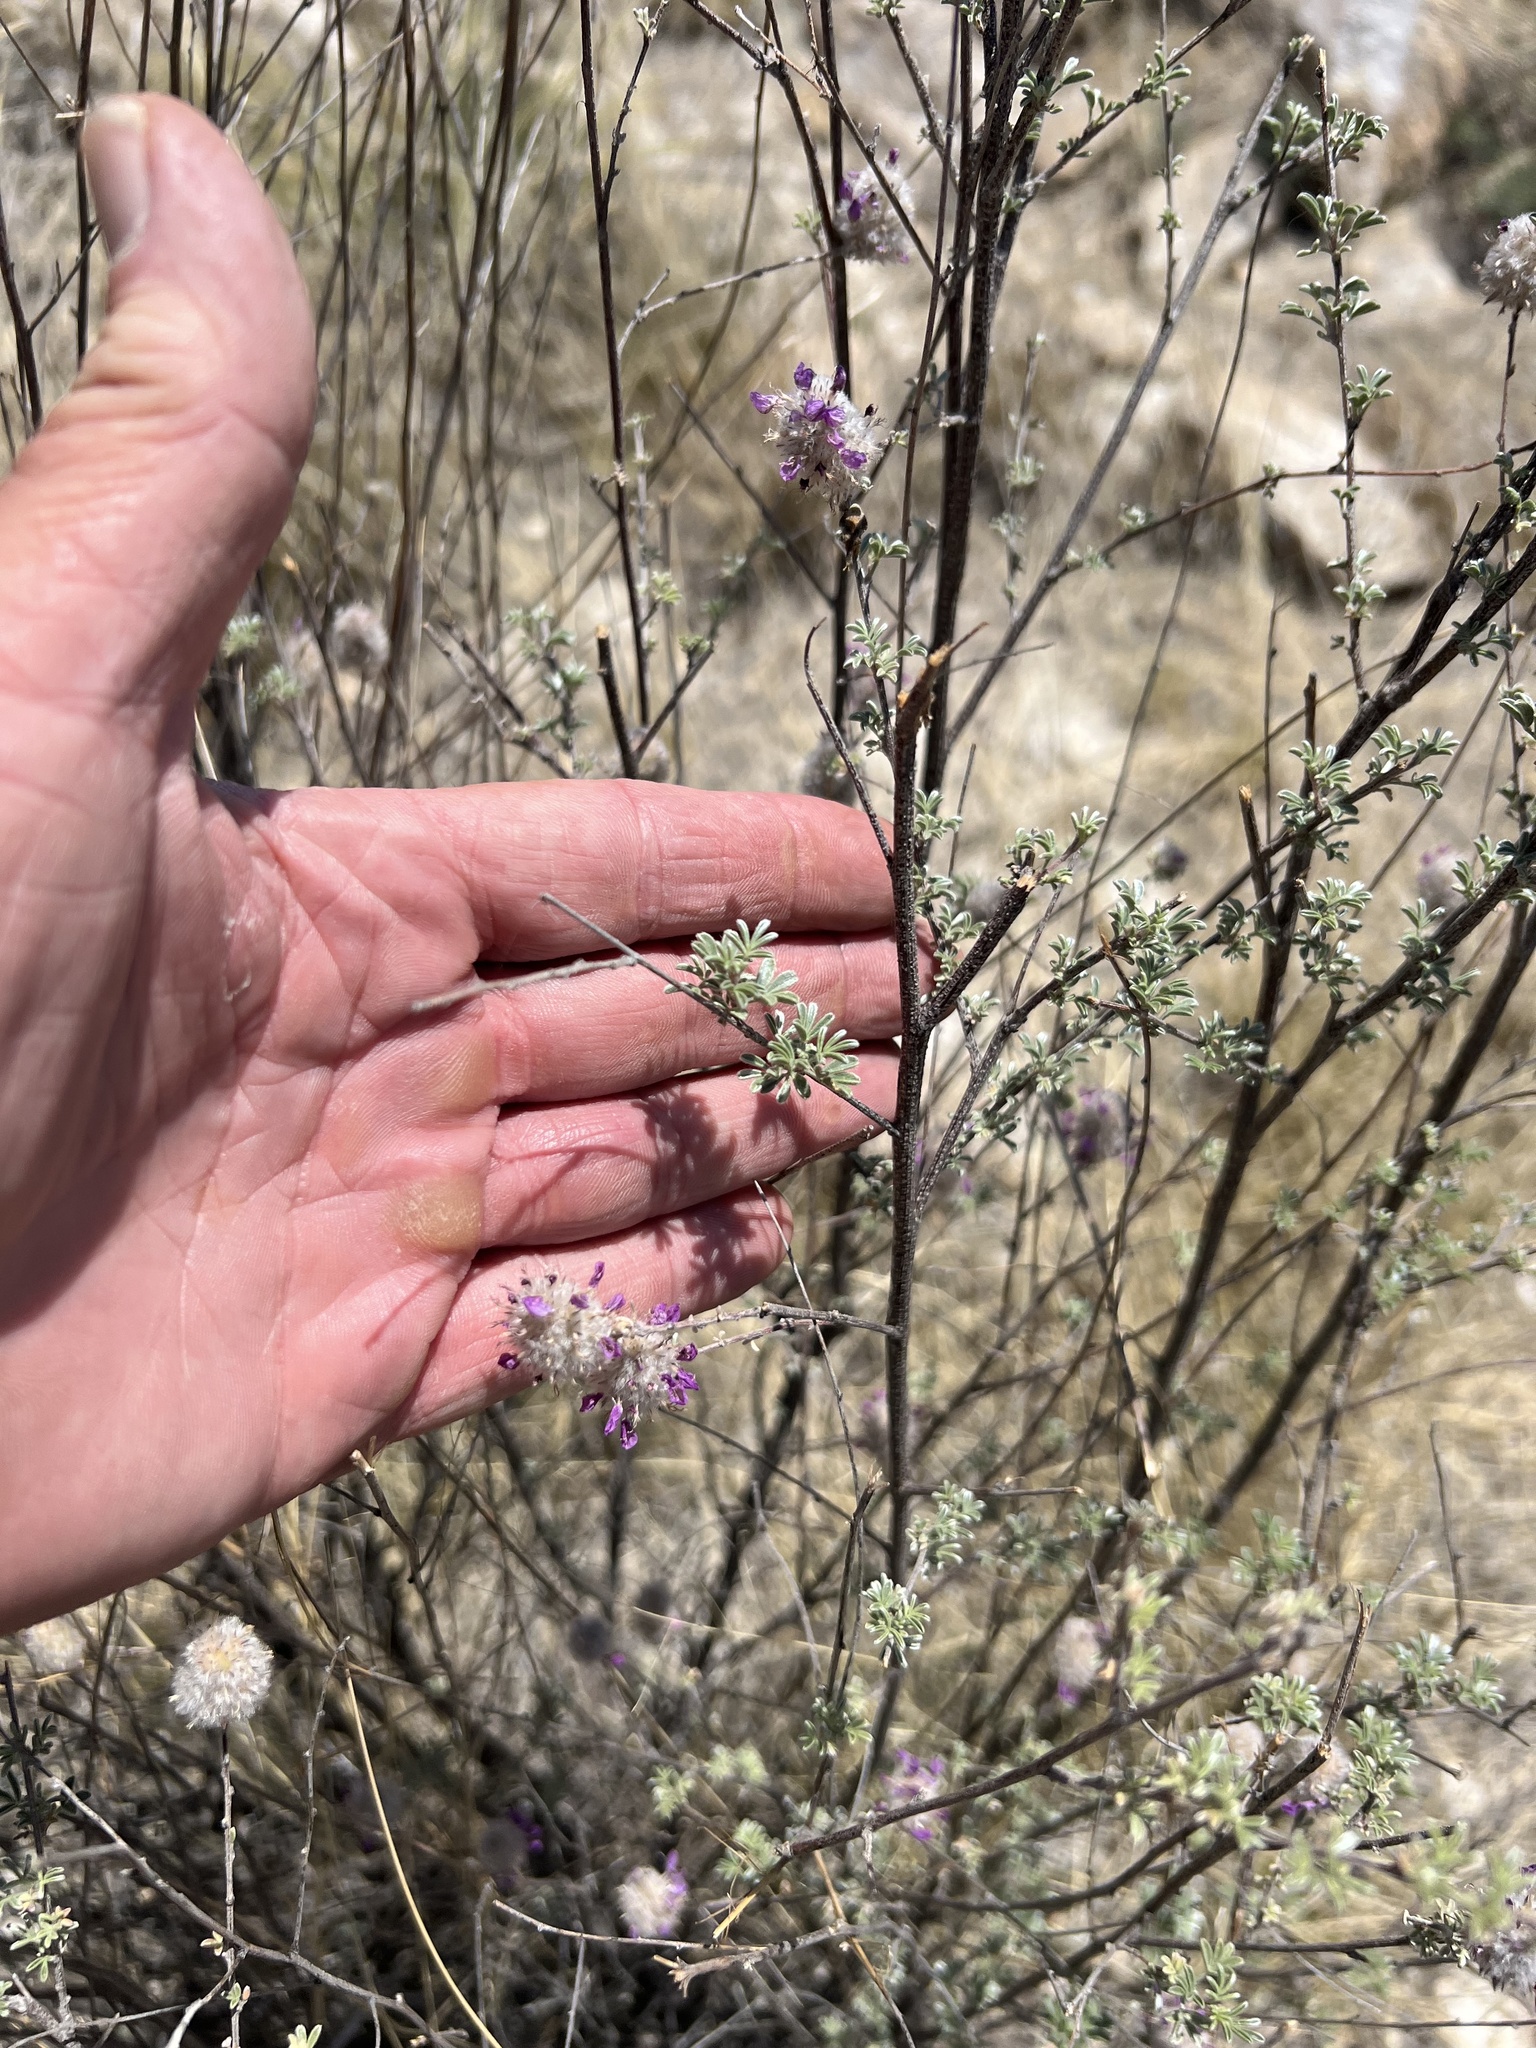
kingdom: Plantae
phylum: Tracheophyta
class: Magnoliopsida
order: Fabales
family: Fabaceae
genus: Dalea
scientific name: Dalea pulchra
